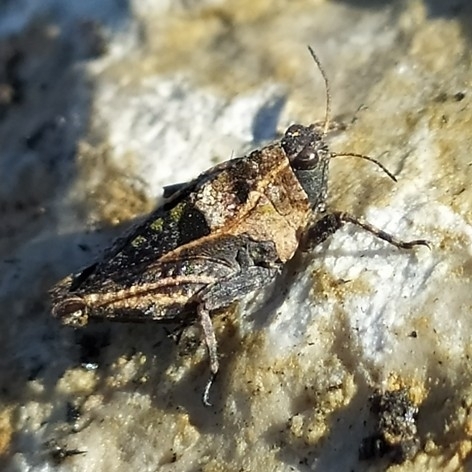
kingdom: Animalia
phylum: Arthropoda
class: Insecta
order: Orthoptera
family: Tetrigidae
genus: Tetrix
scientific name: Tetrix tenuicornis
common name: Long-horned groundhopper
